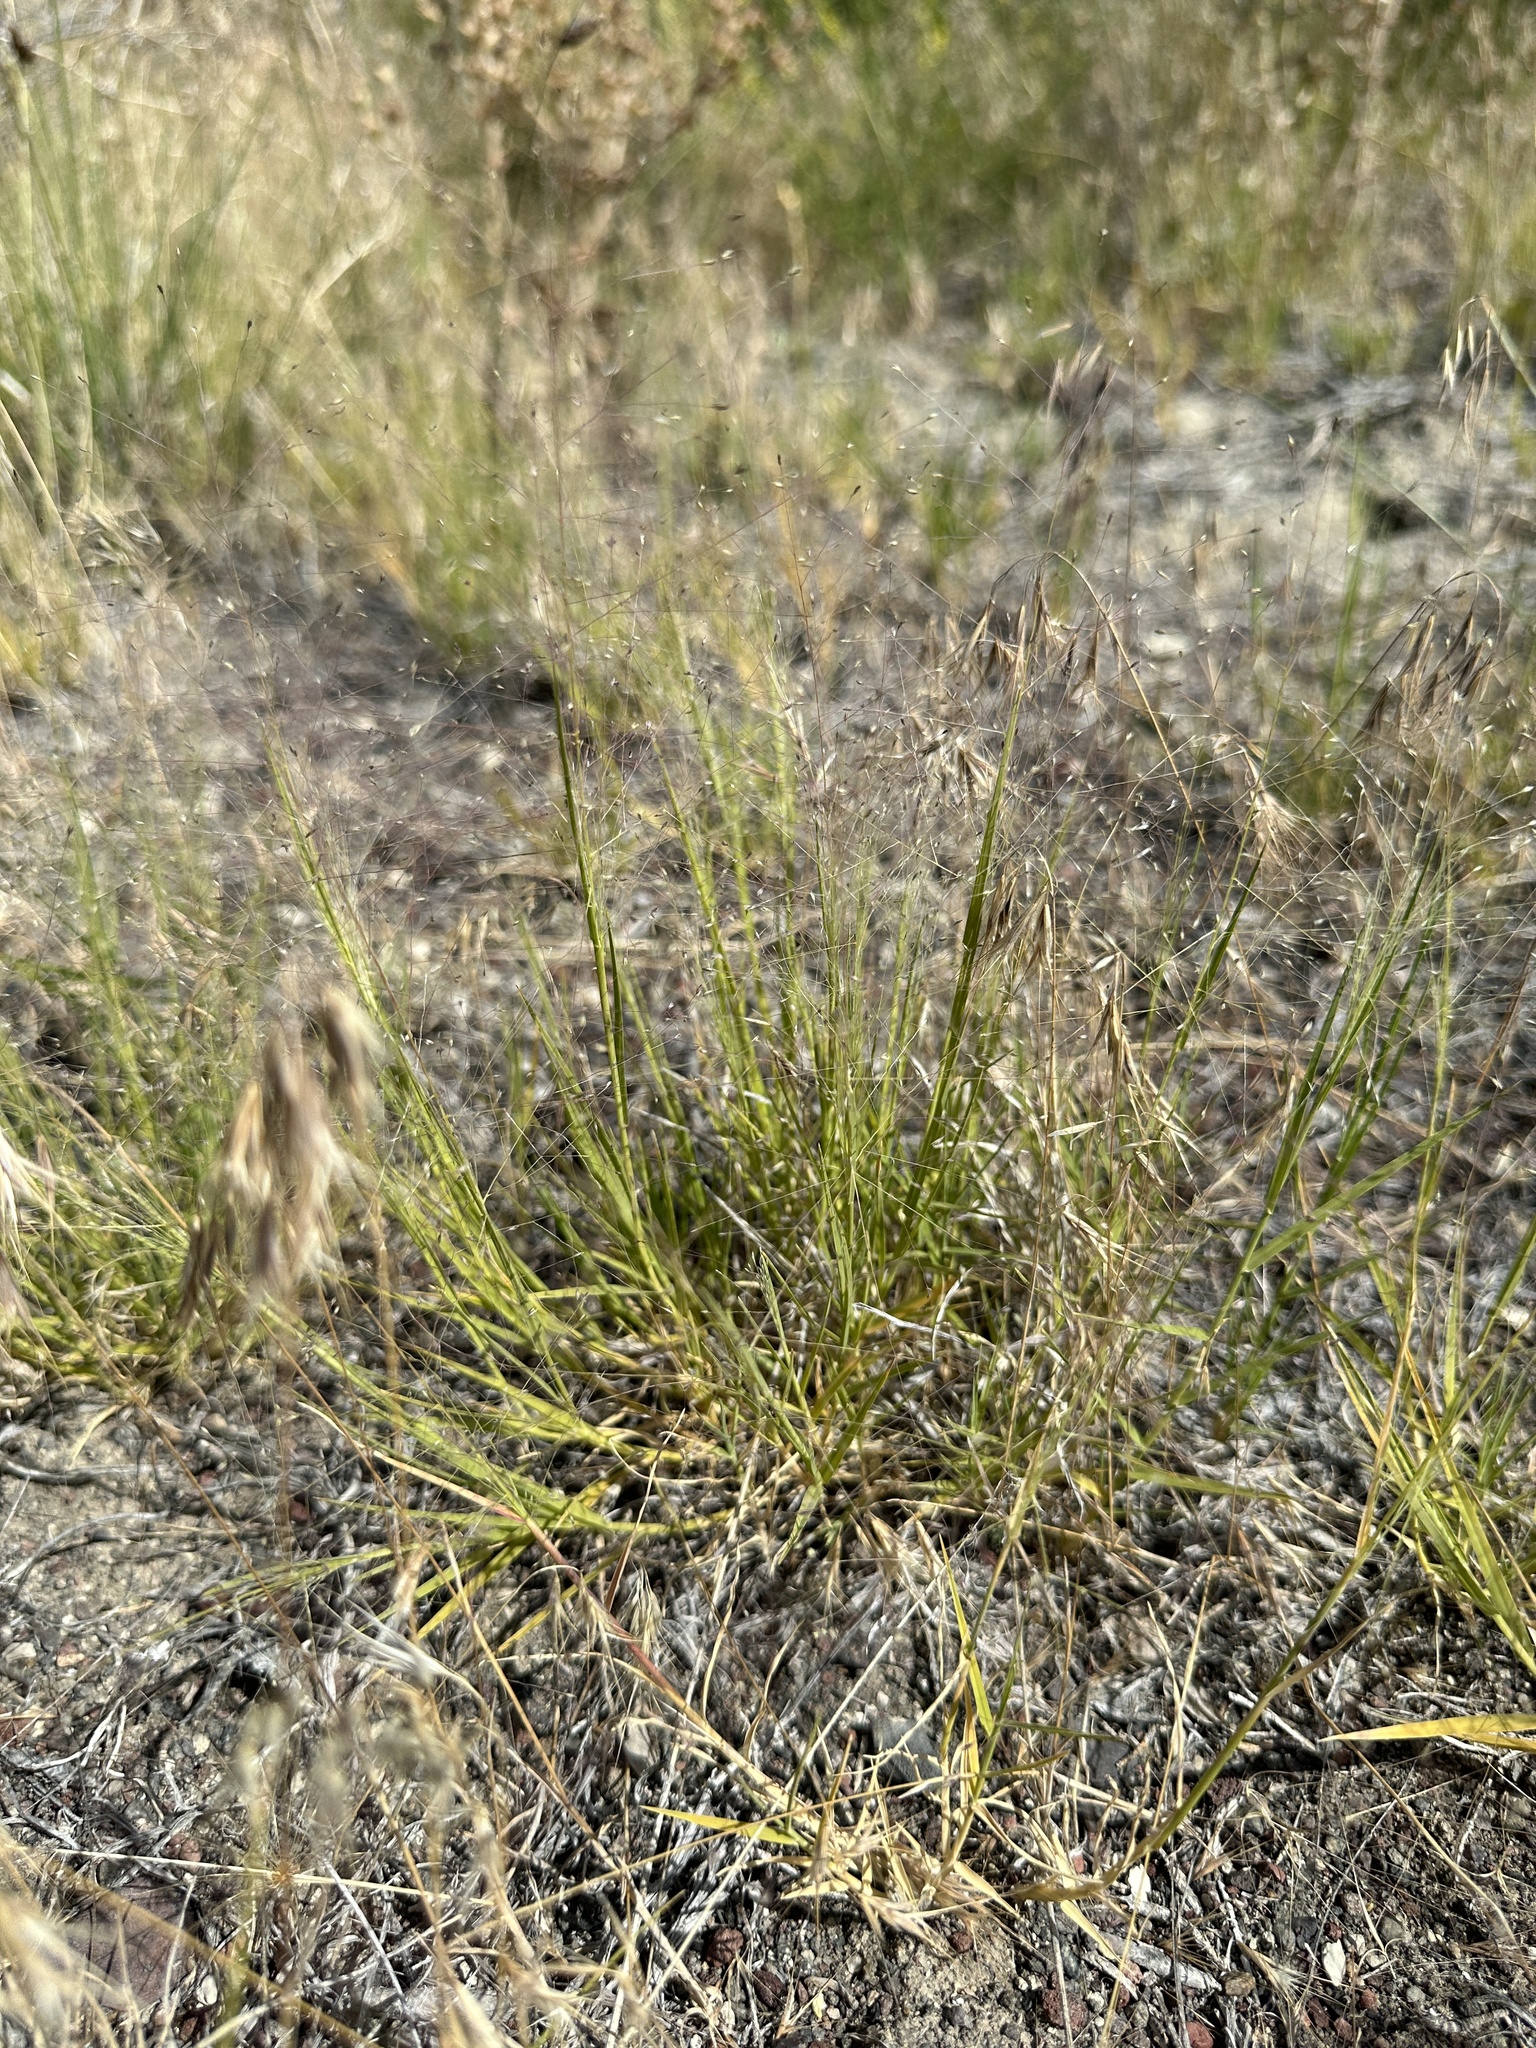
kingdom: Plantae
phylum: Tracheophyta
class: Liliopsida
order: Poales
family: Poaceae
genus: Muhlenbergia
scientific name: Muhlenbergia asperifolia
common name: Alkali muhly
